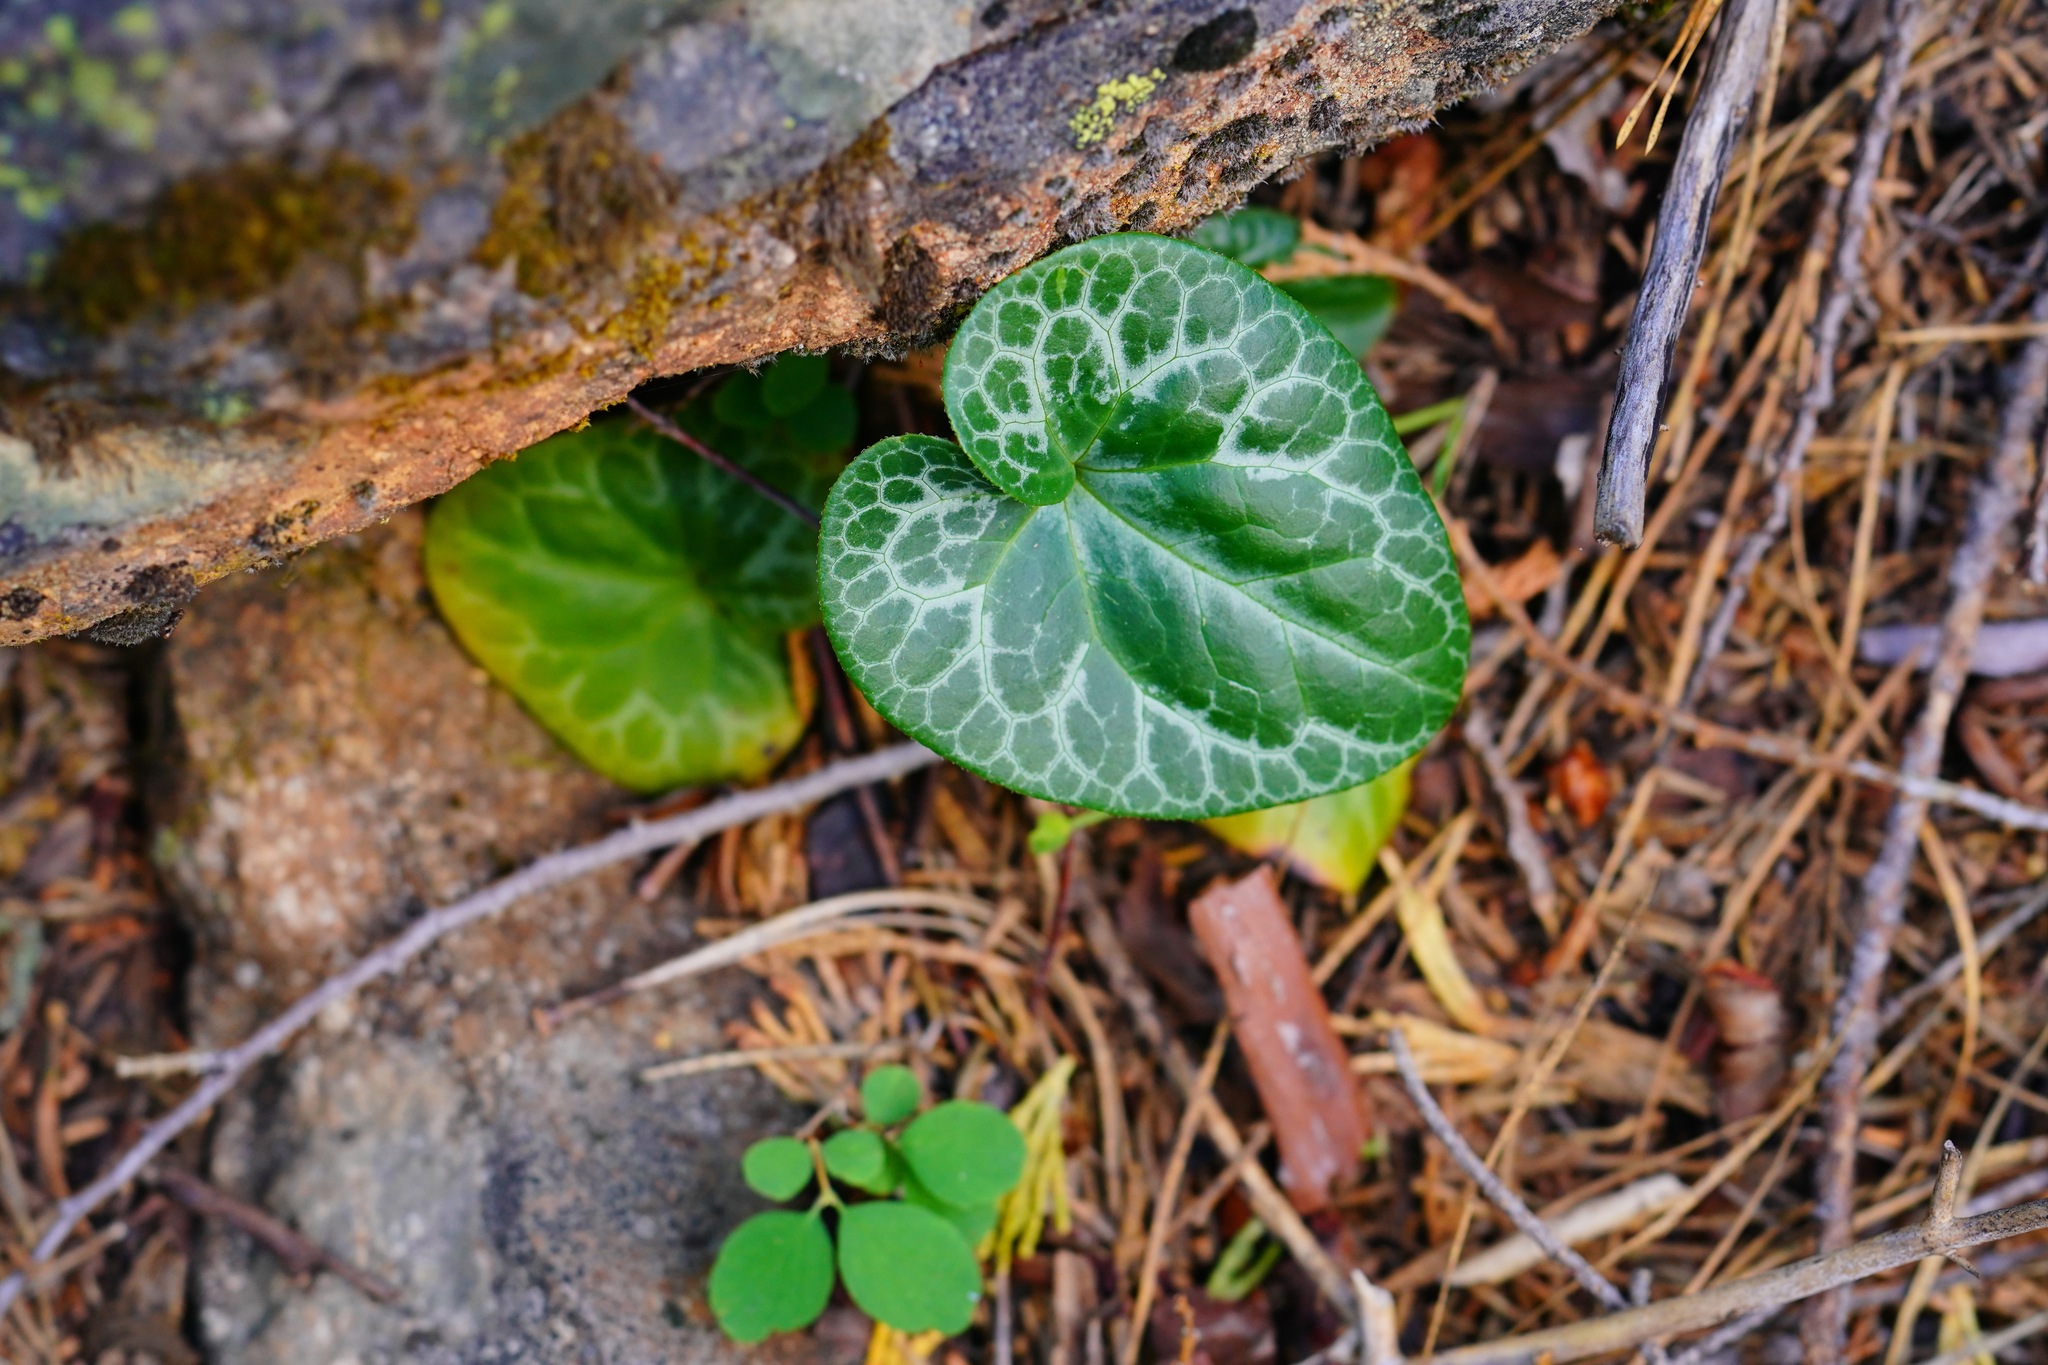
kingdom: Plantae
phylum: Tracheophyta
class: Magnoliopsida
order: Piperales
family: Aristolochiaceae
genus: Asarum
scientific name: Asarum hartwegii
